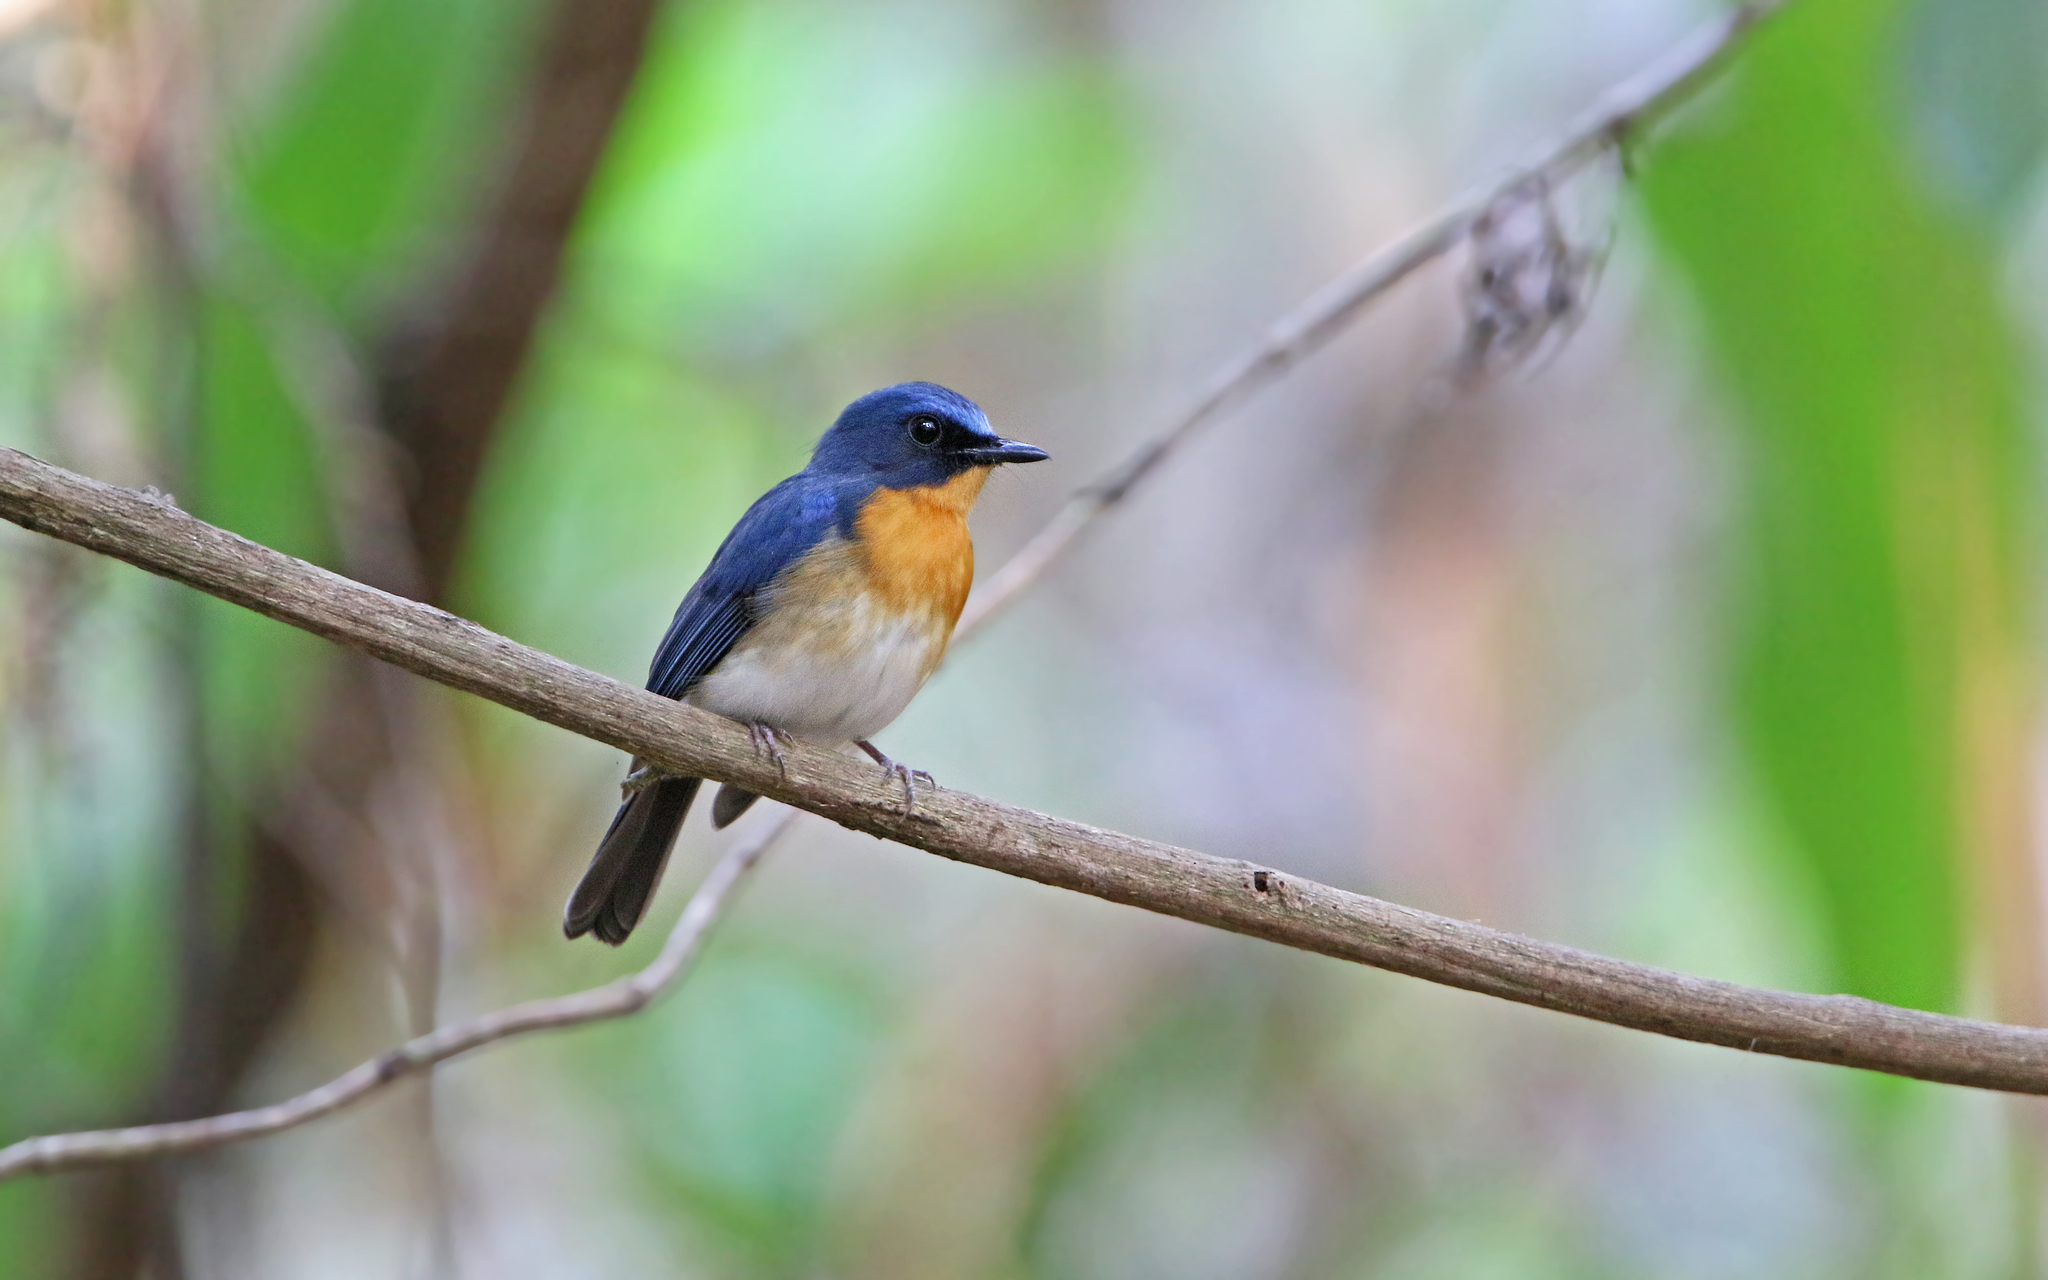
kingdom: Animalia
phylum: Chordata
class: Aves
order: Passeriformes
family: Muscicapidae
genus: Cyornis
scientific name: Cyornis tickelliae
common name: Tickell's blue flycatcher
